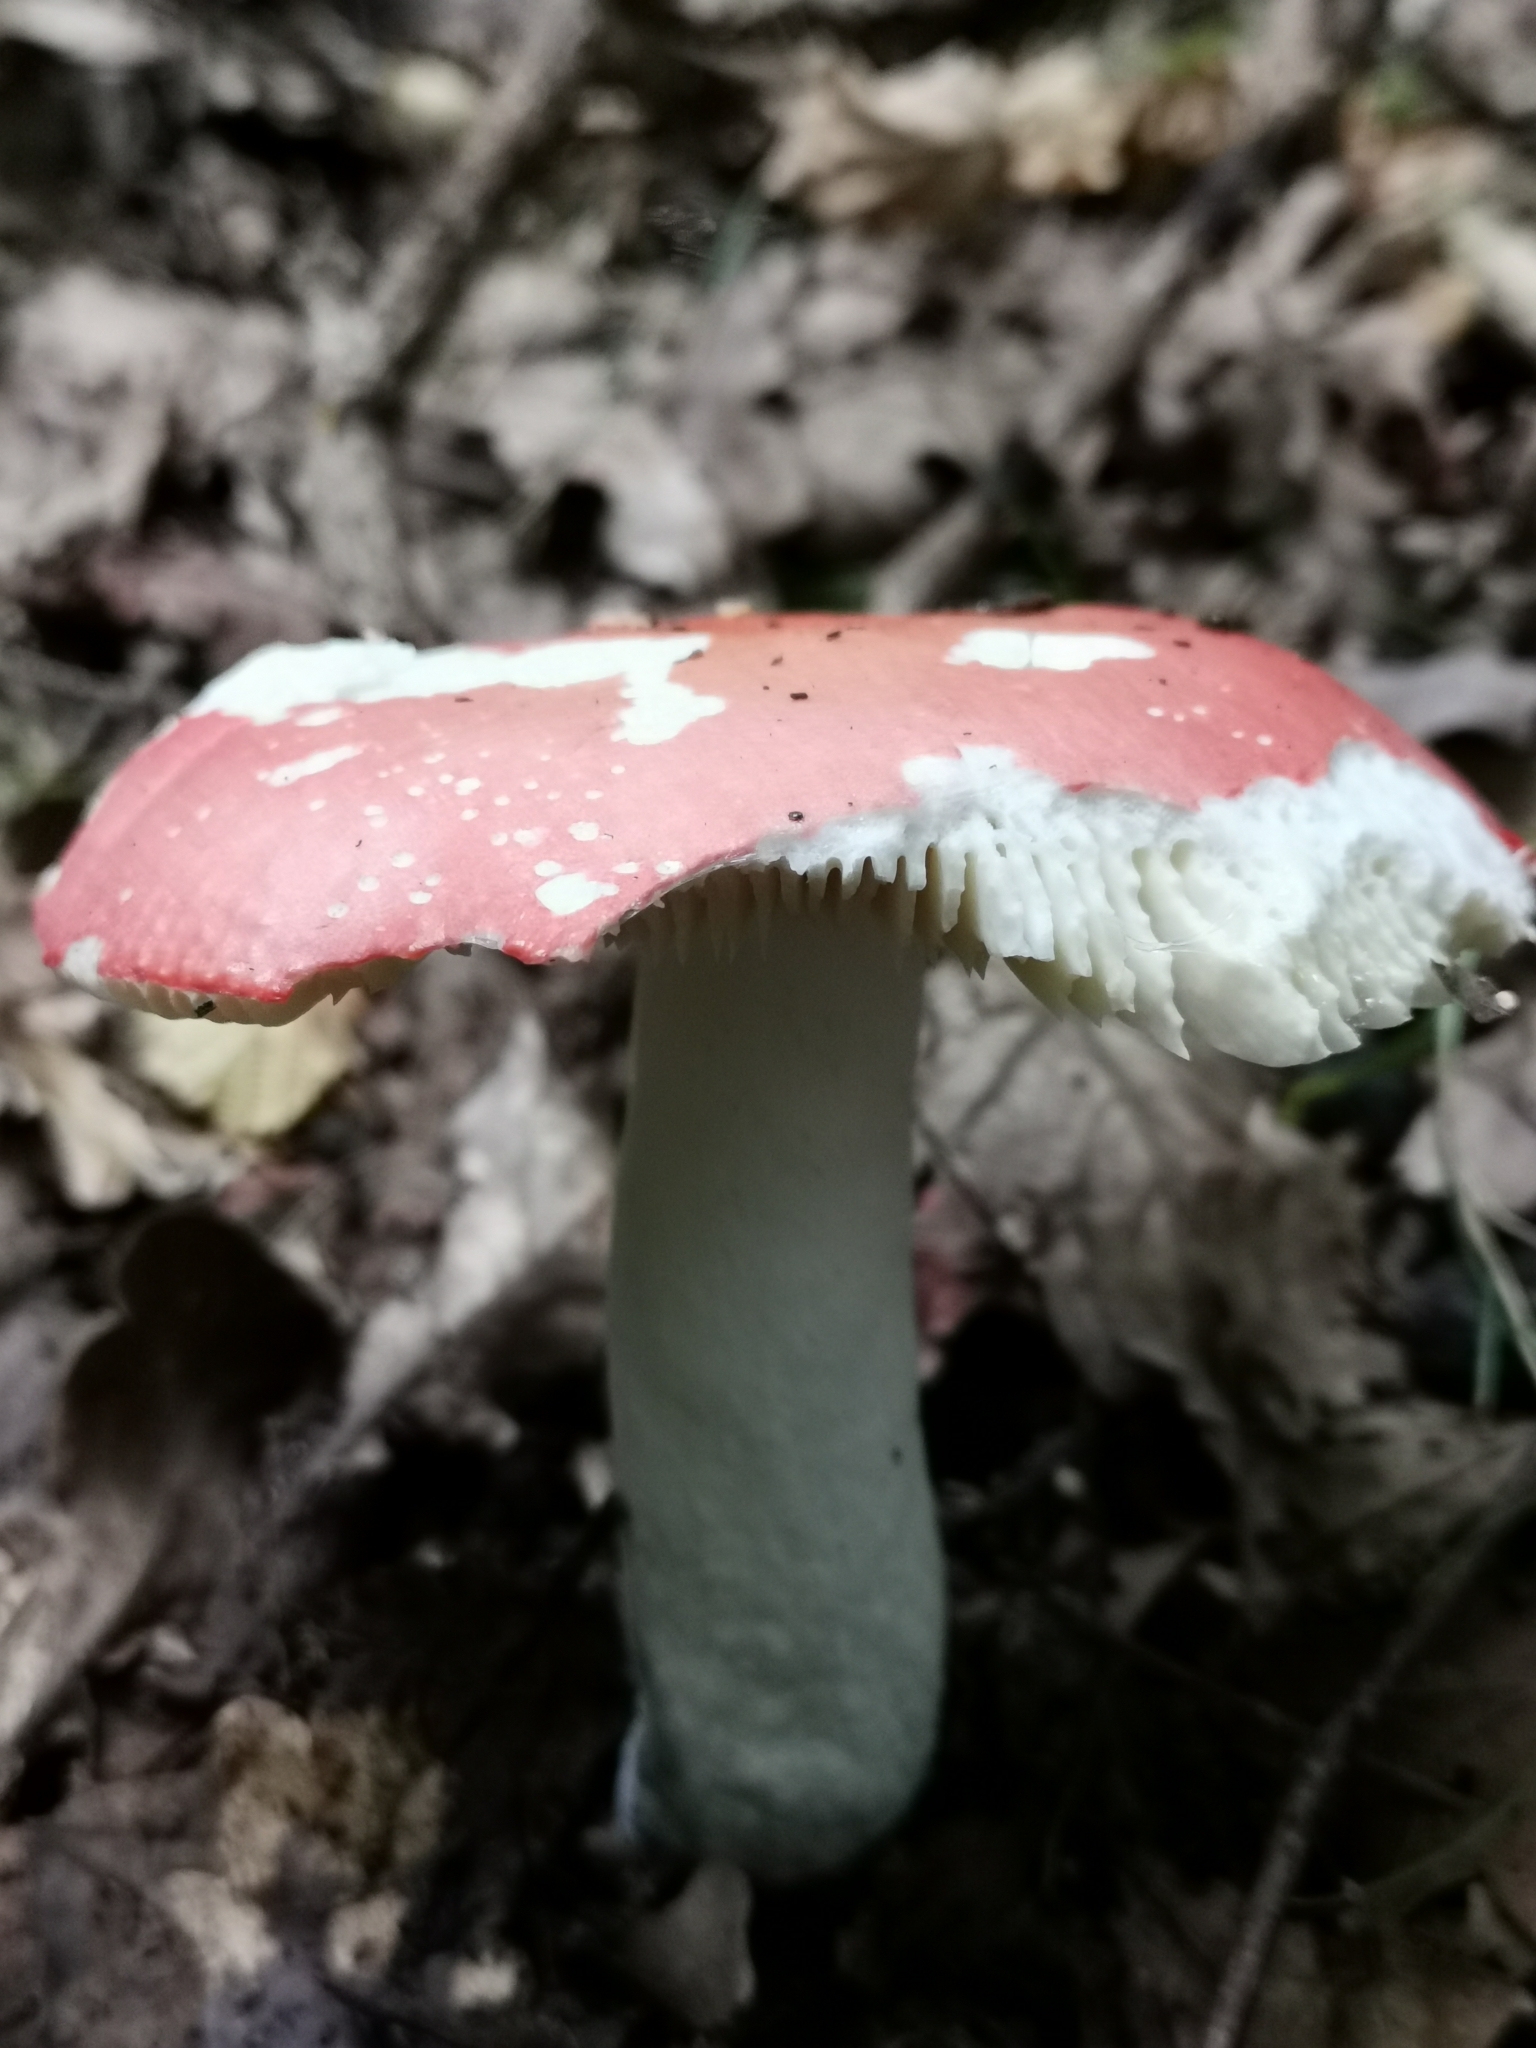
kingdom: Fungi
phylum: Basidiomycota
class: Agaricomycetes
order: Russulales
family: Russulaceae
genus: Russula
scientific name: Russula
